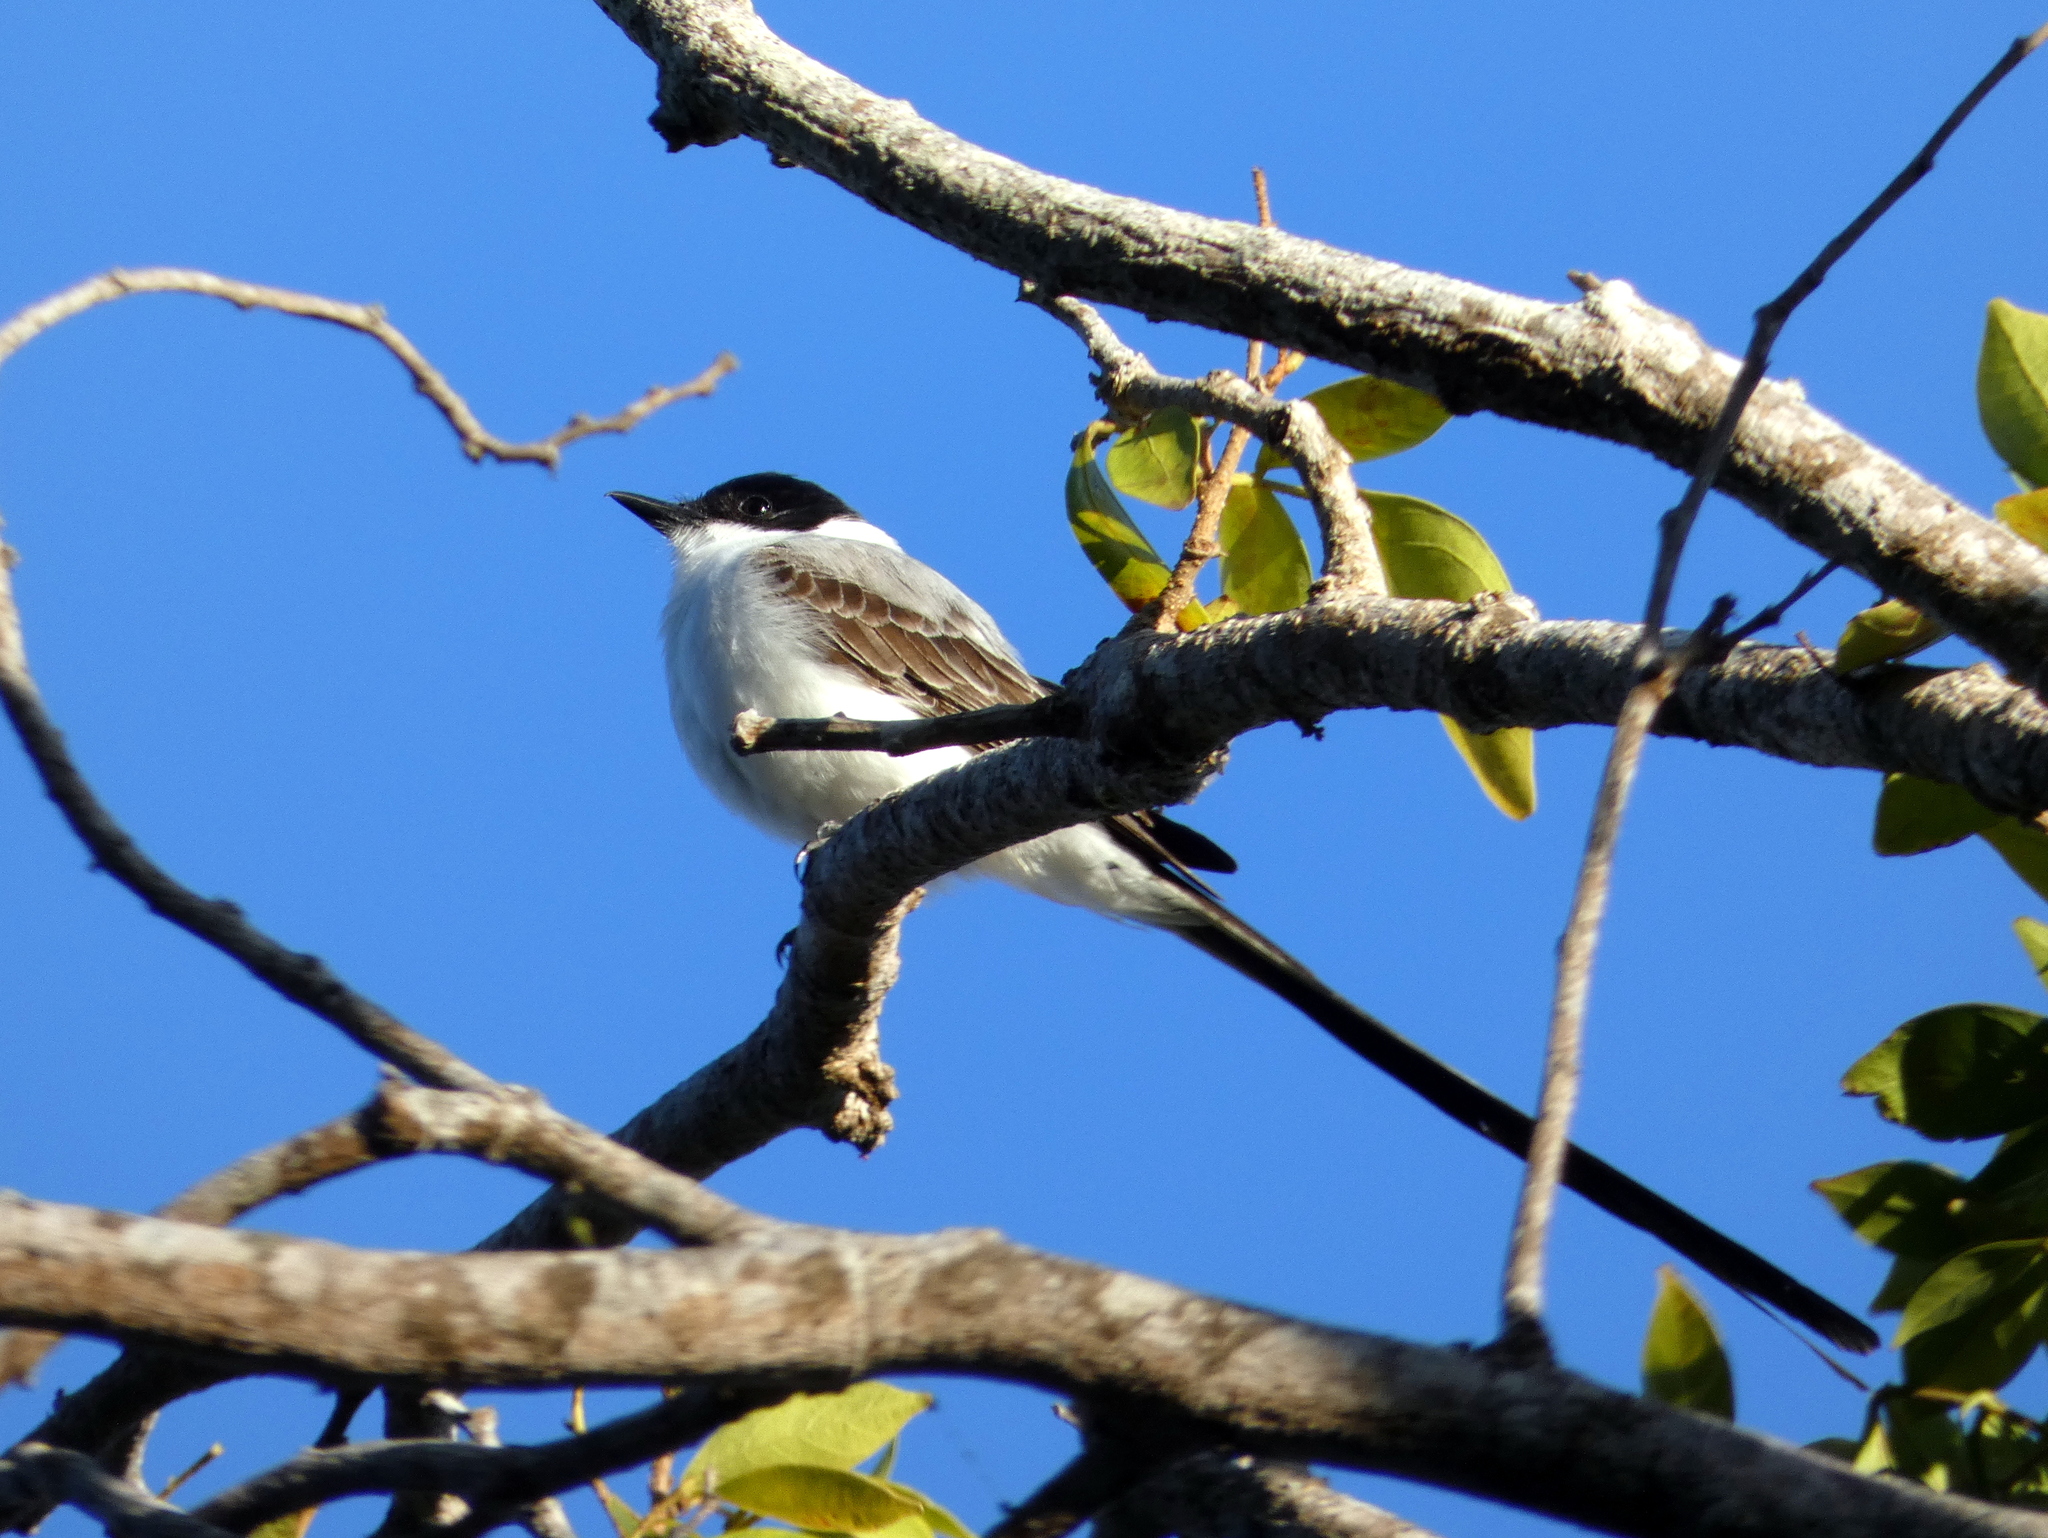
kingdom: Animalia
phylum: Chordata
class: Aves
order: Passeriformes
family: Tyrannidae
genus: Tyrannus
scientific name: Tyrannus savana
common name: Fork-tailed flycatcher
